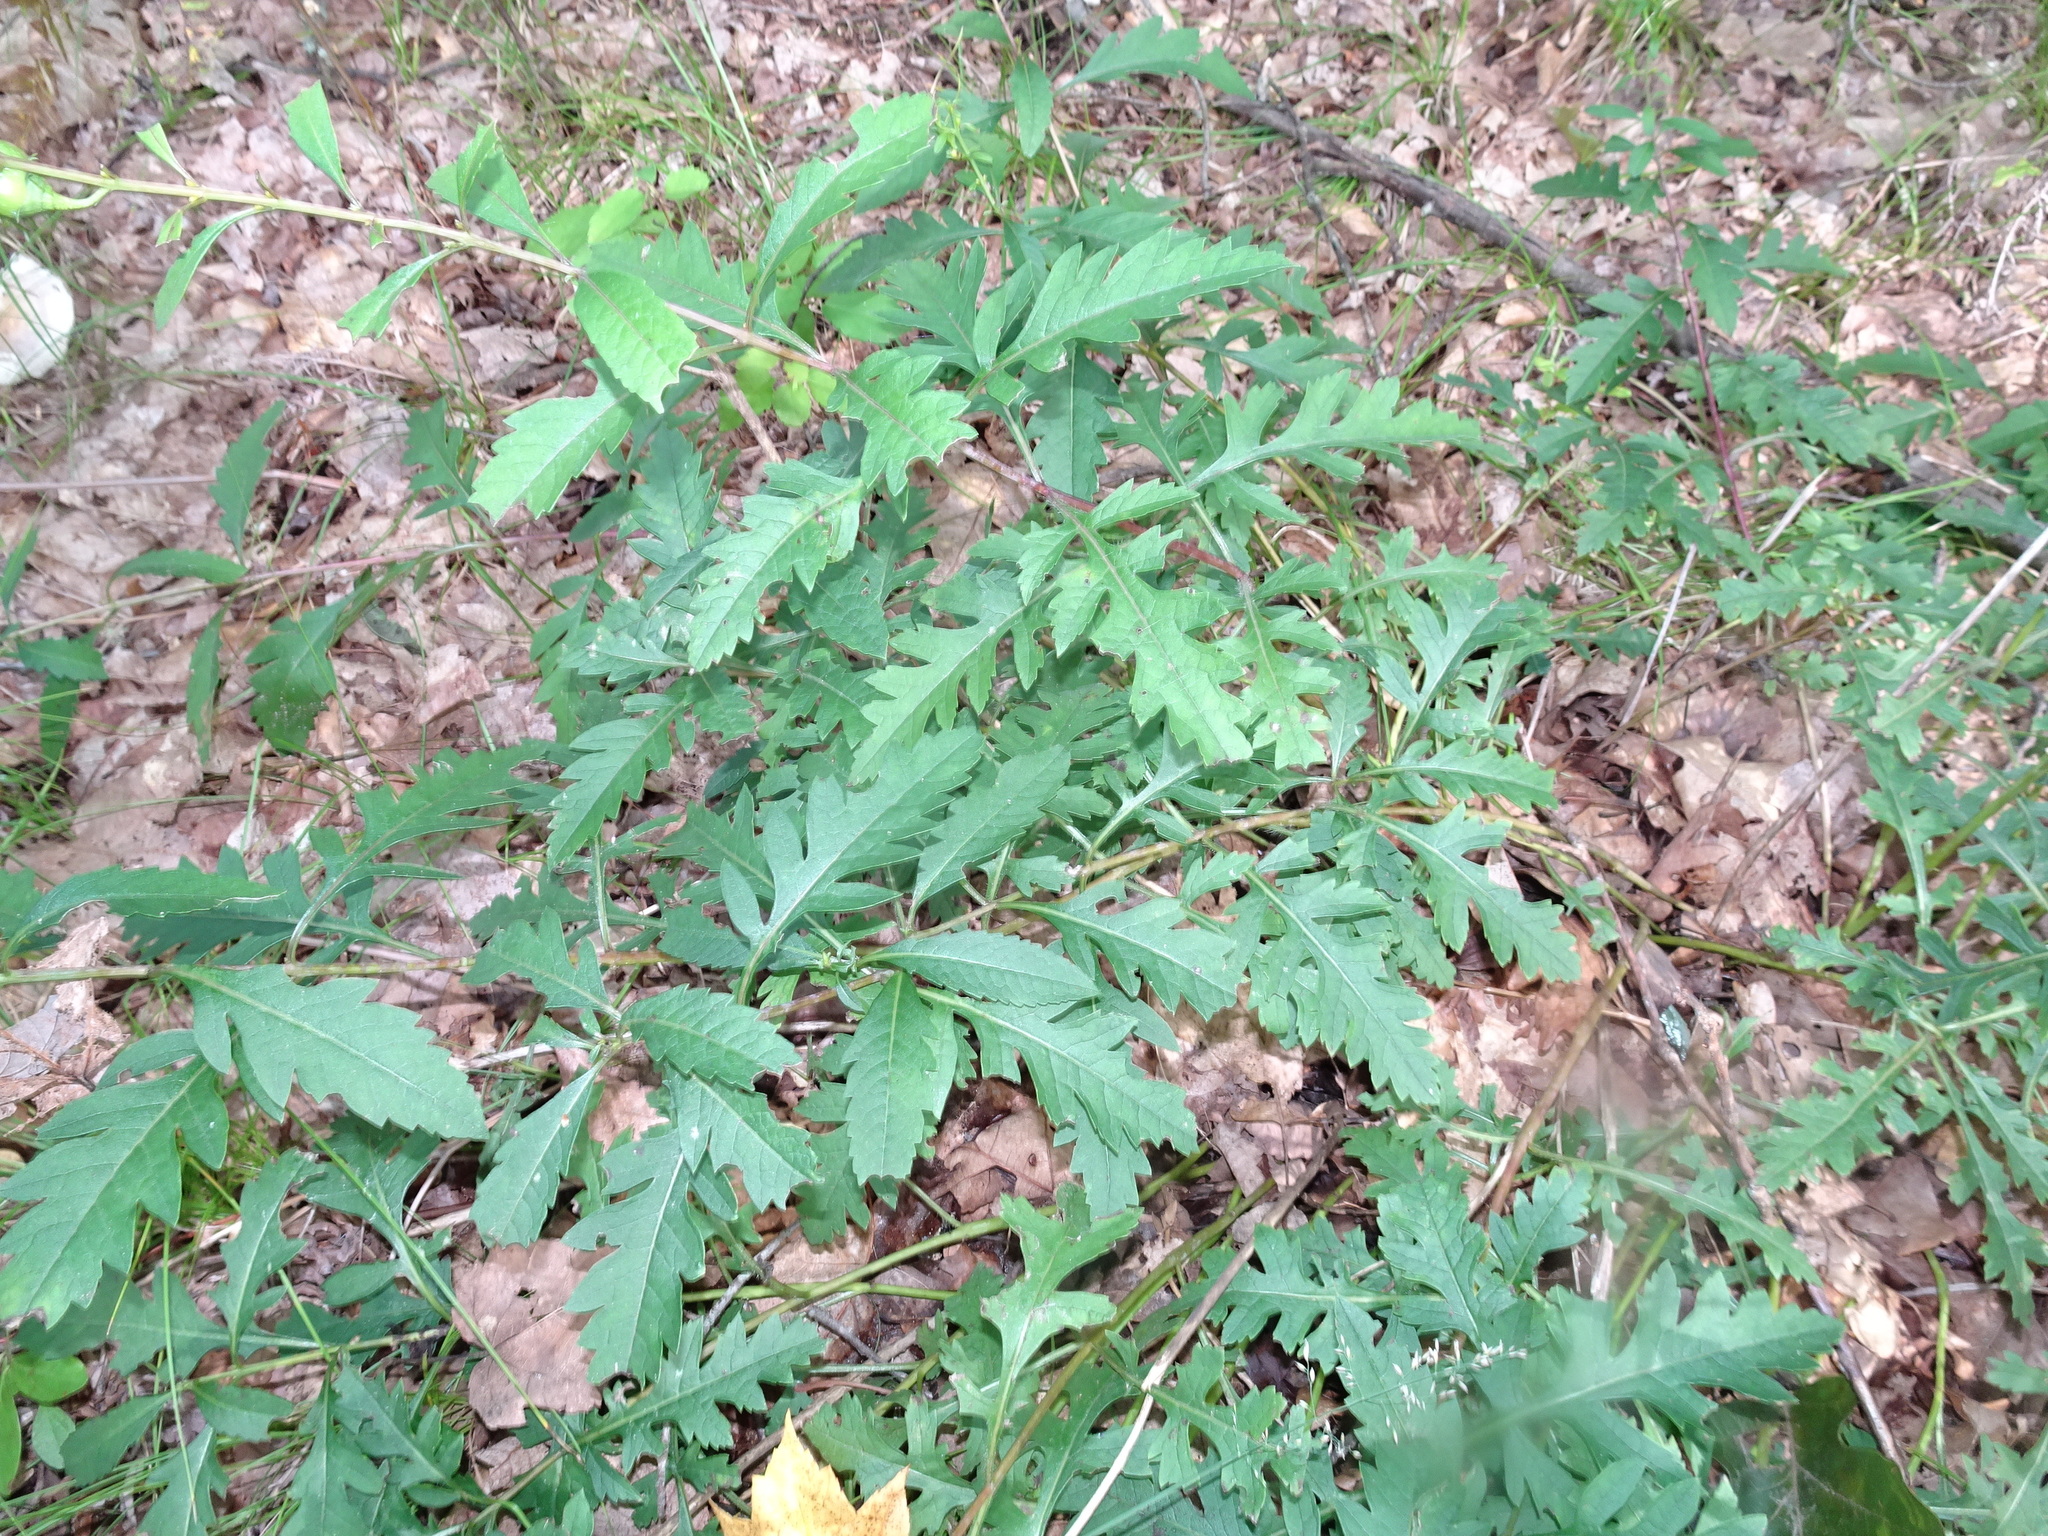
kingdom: Plantae
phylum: Tracheophyta
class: Magnoliopsida
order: Lamiales
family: Orobanchaceae
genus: Aureolaria
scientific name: Aureolaria flava
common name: Smooth false foxglove
